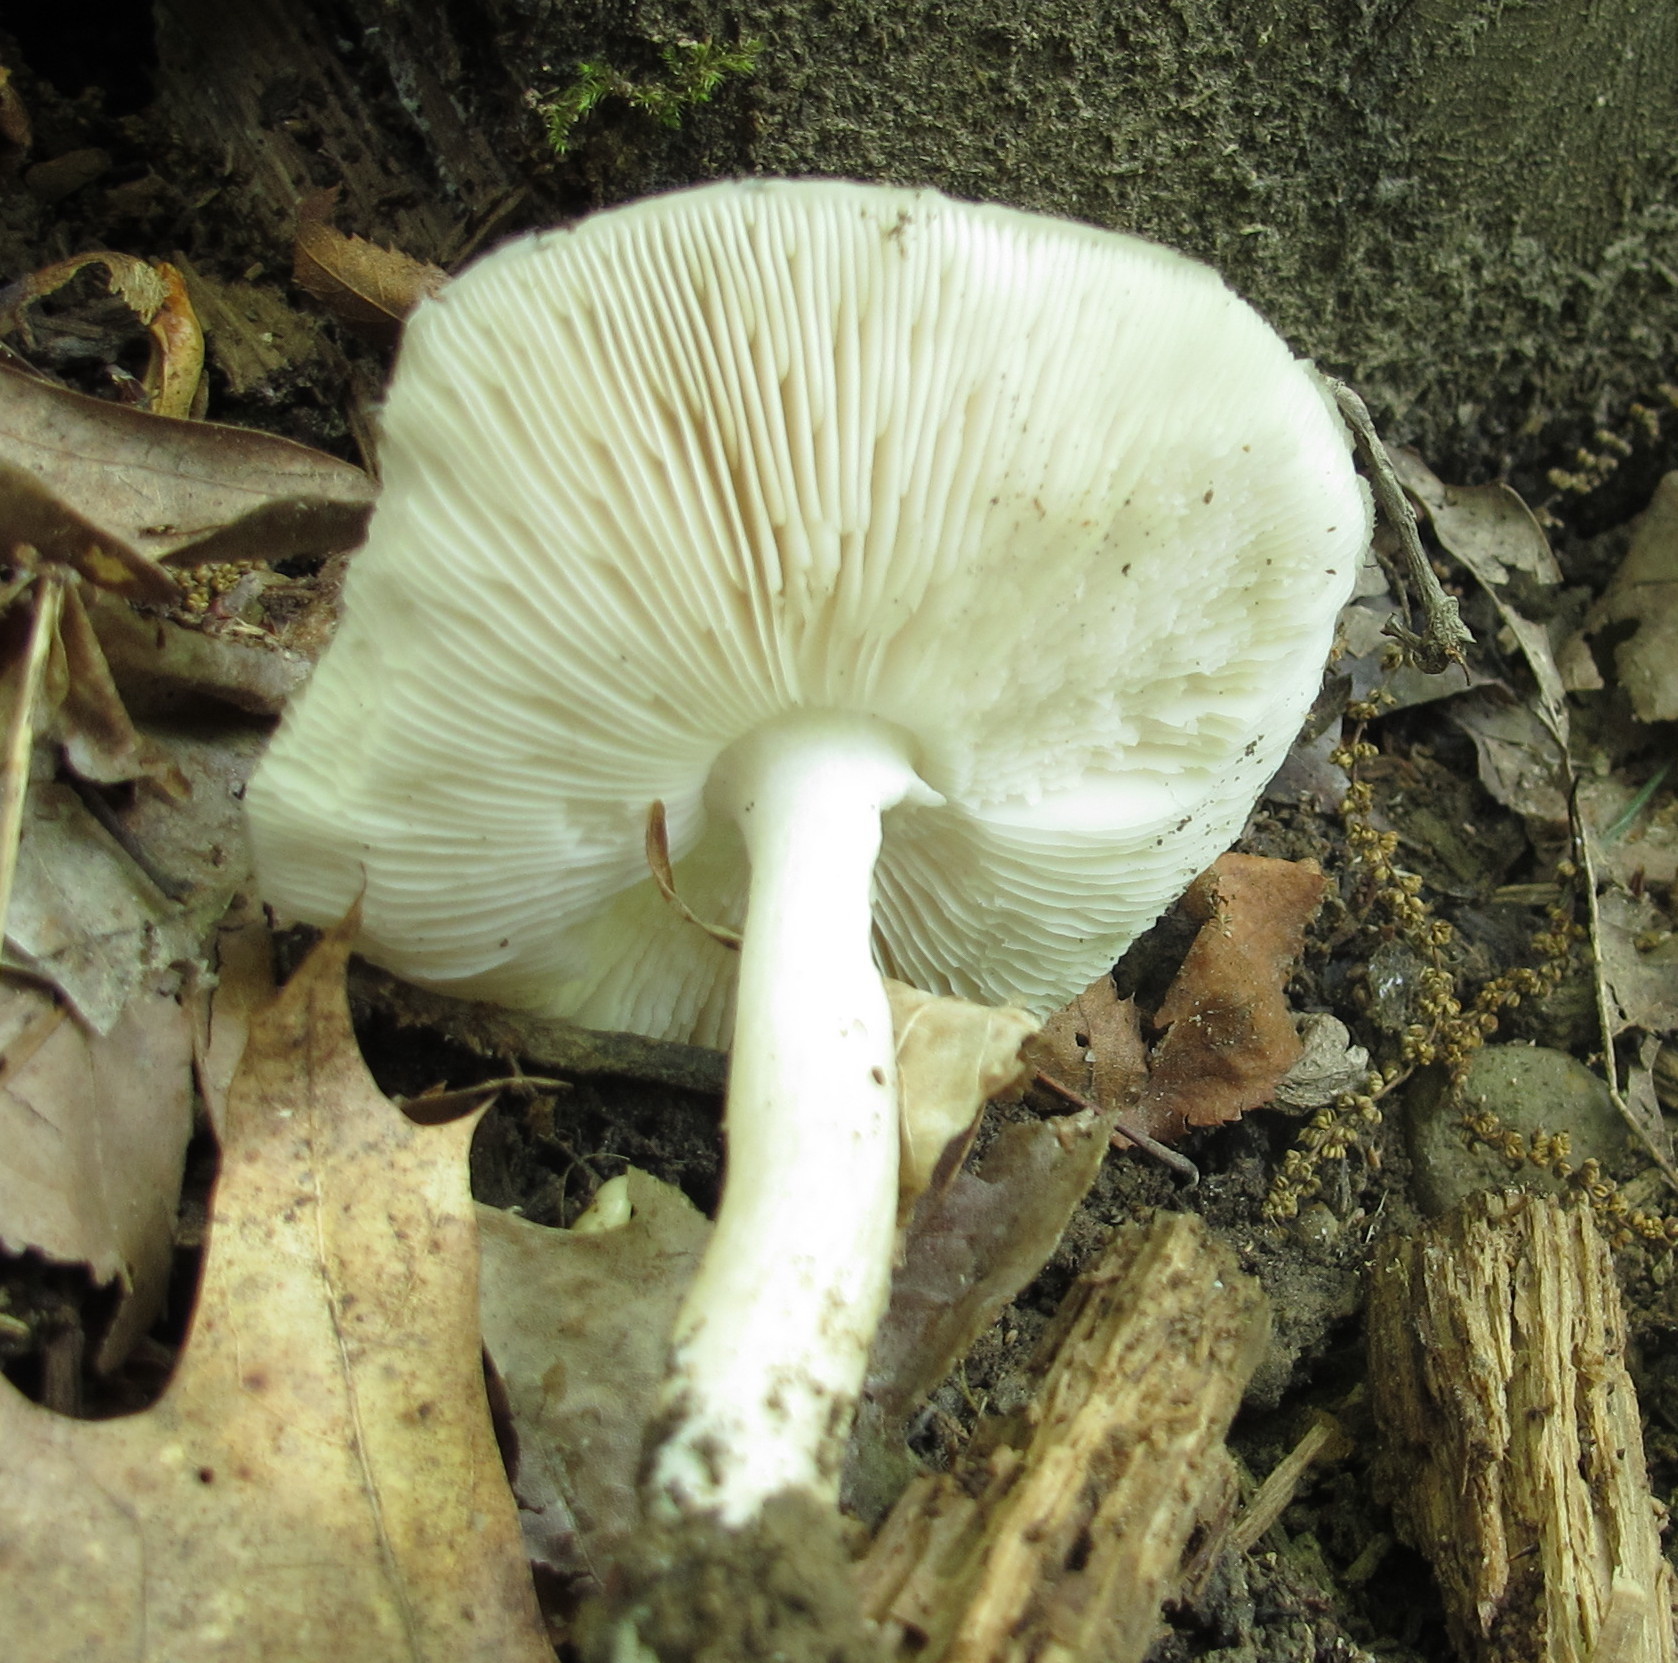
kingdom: Fungi
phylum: Basidiomycota
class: Agaricomycetes
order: Agaricales
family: Pluteaceae
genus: Pluteus
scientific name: Pluteus petasatus
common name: Scaly shield
